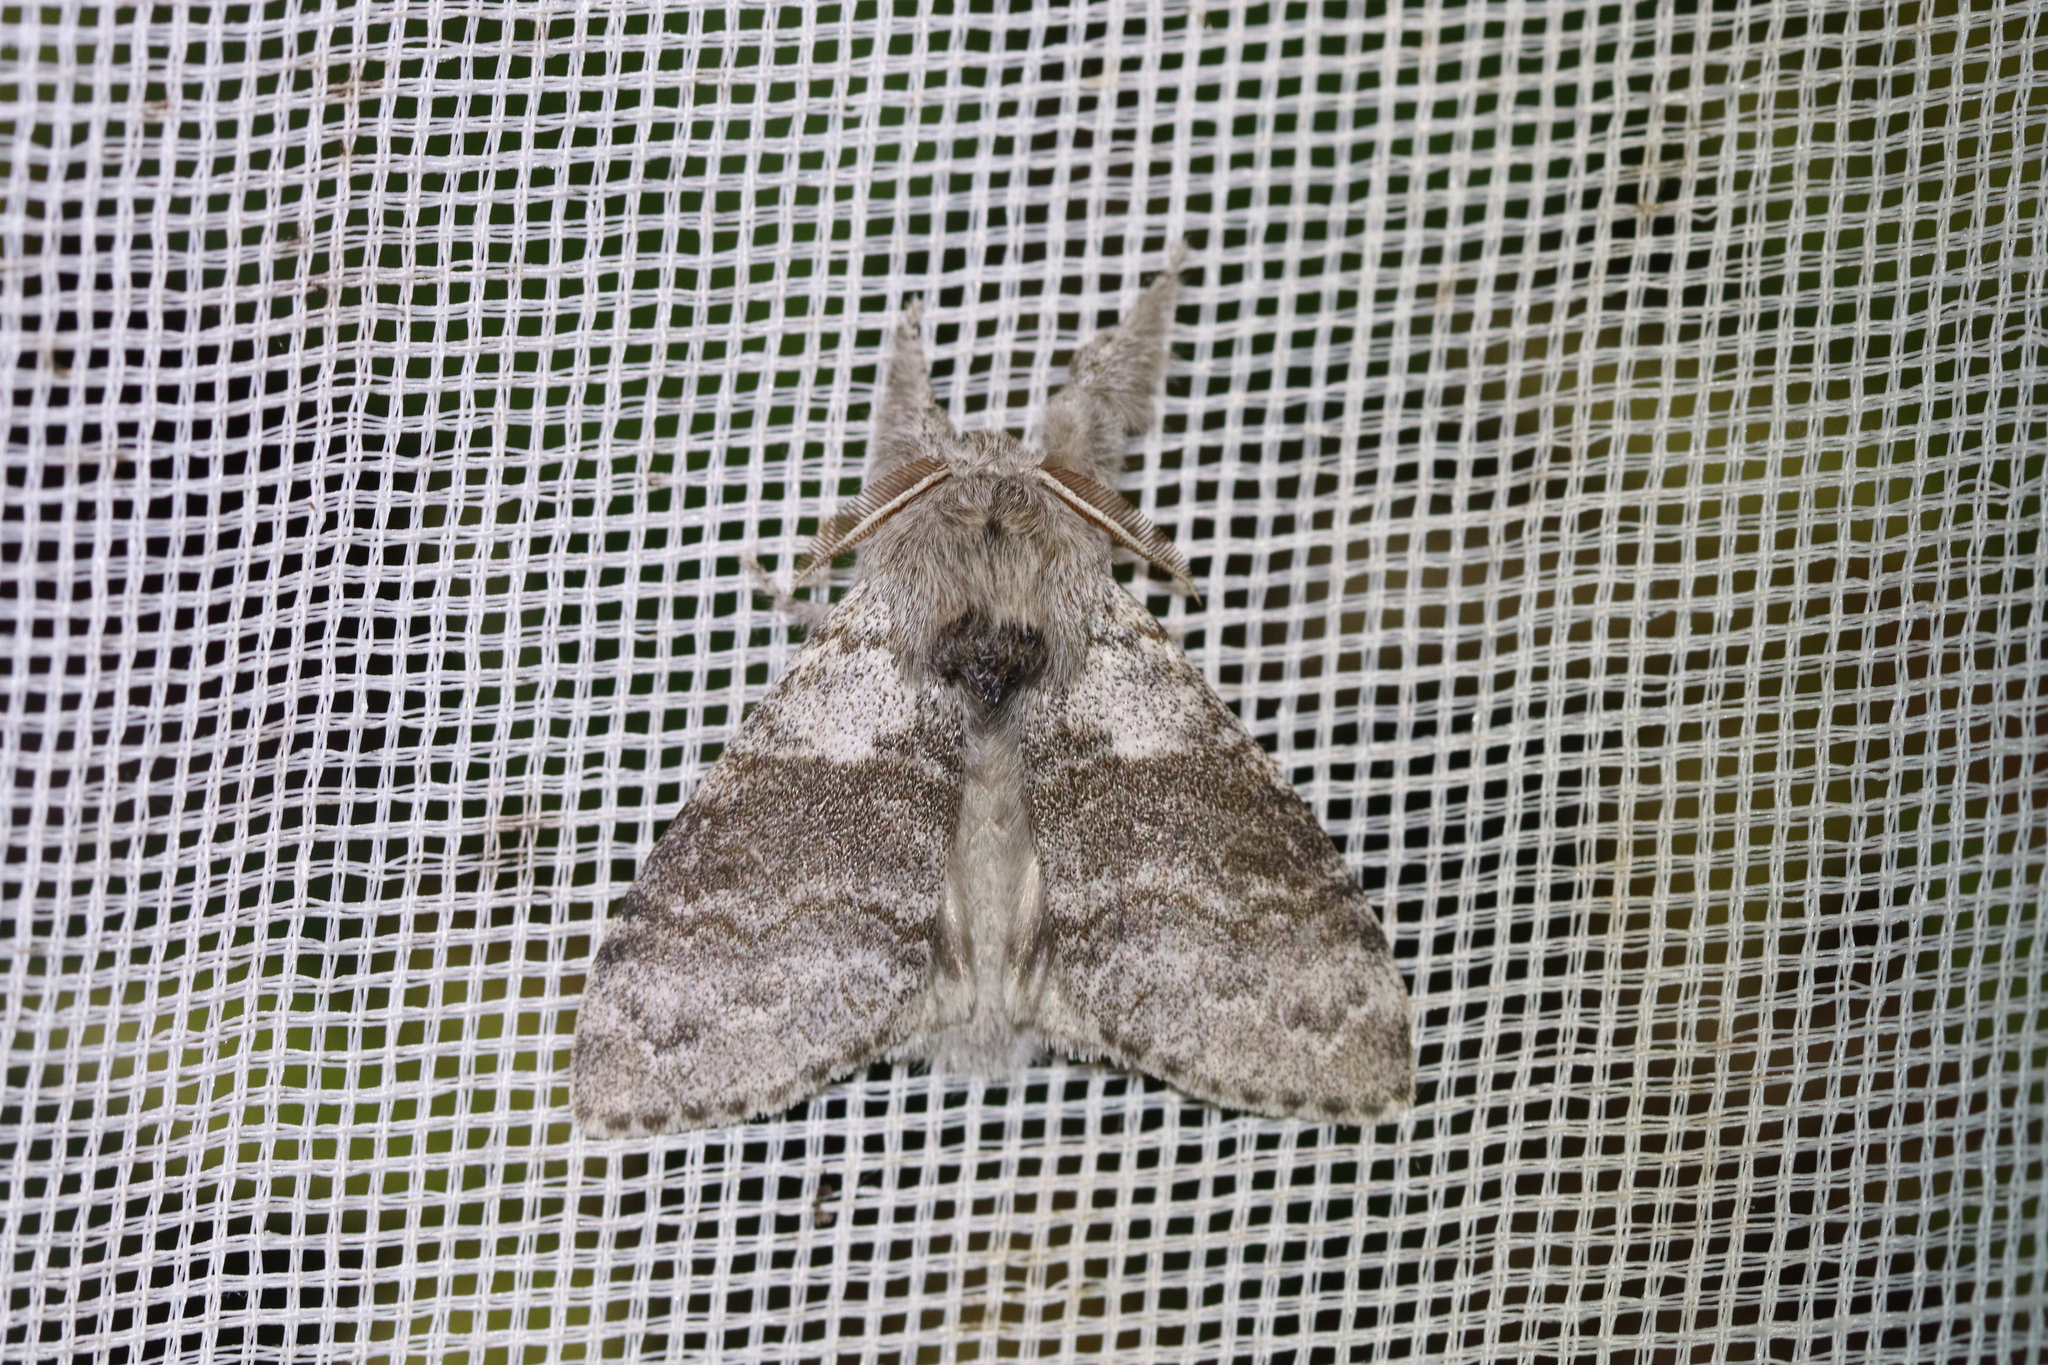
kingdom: Animalia
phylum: Arthropoda
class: Insecta
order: Lepidoptera
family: Erebidae
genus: Calliteara
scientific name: Calliteara pudibunda
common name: Pale tussock
